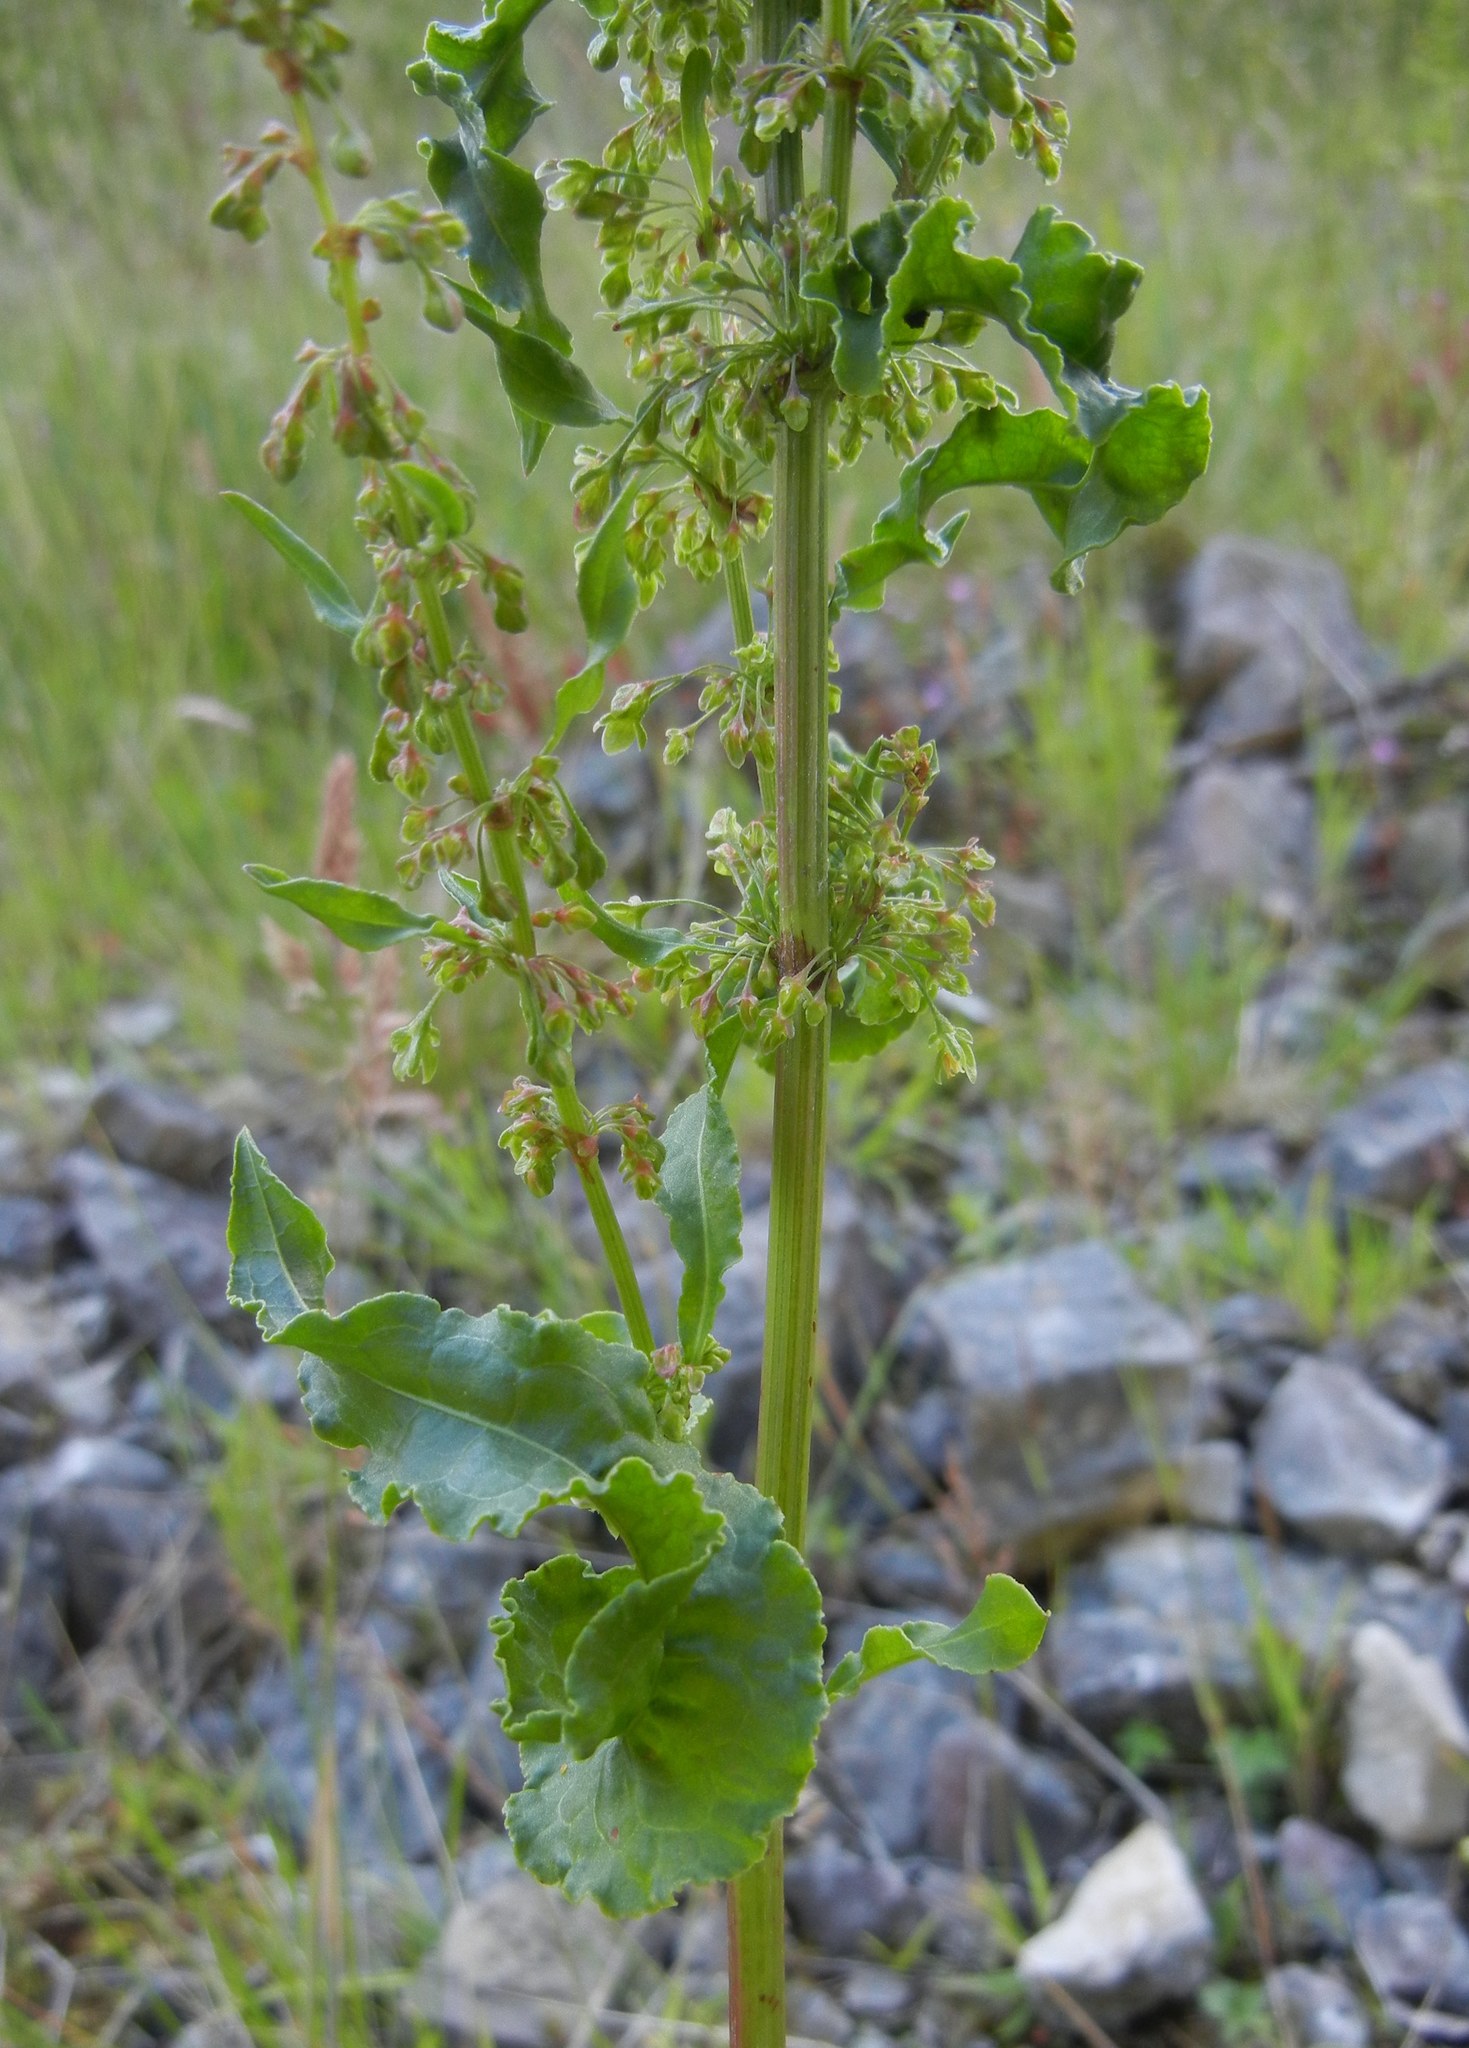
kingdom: Plantae
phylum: Tracheophyta
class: Magnoliopsida
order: Caryophyllales
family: Polygonaceae
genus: Rumex
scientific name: Rumex crispus
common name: Curled dock
